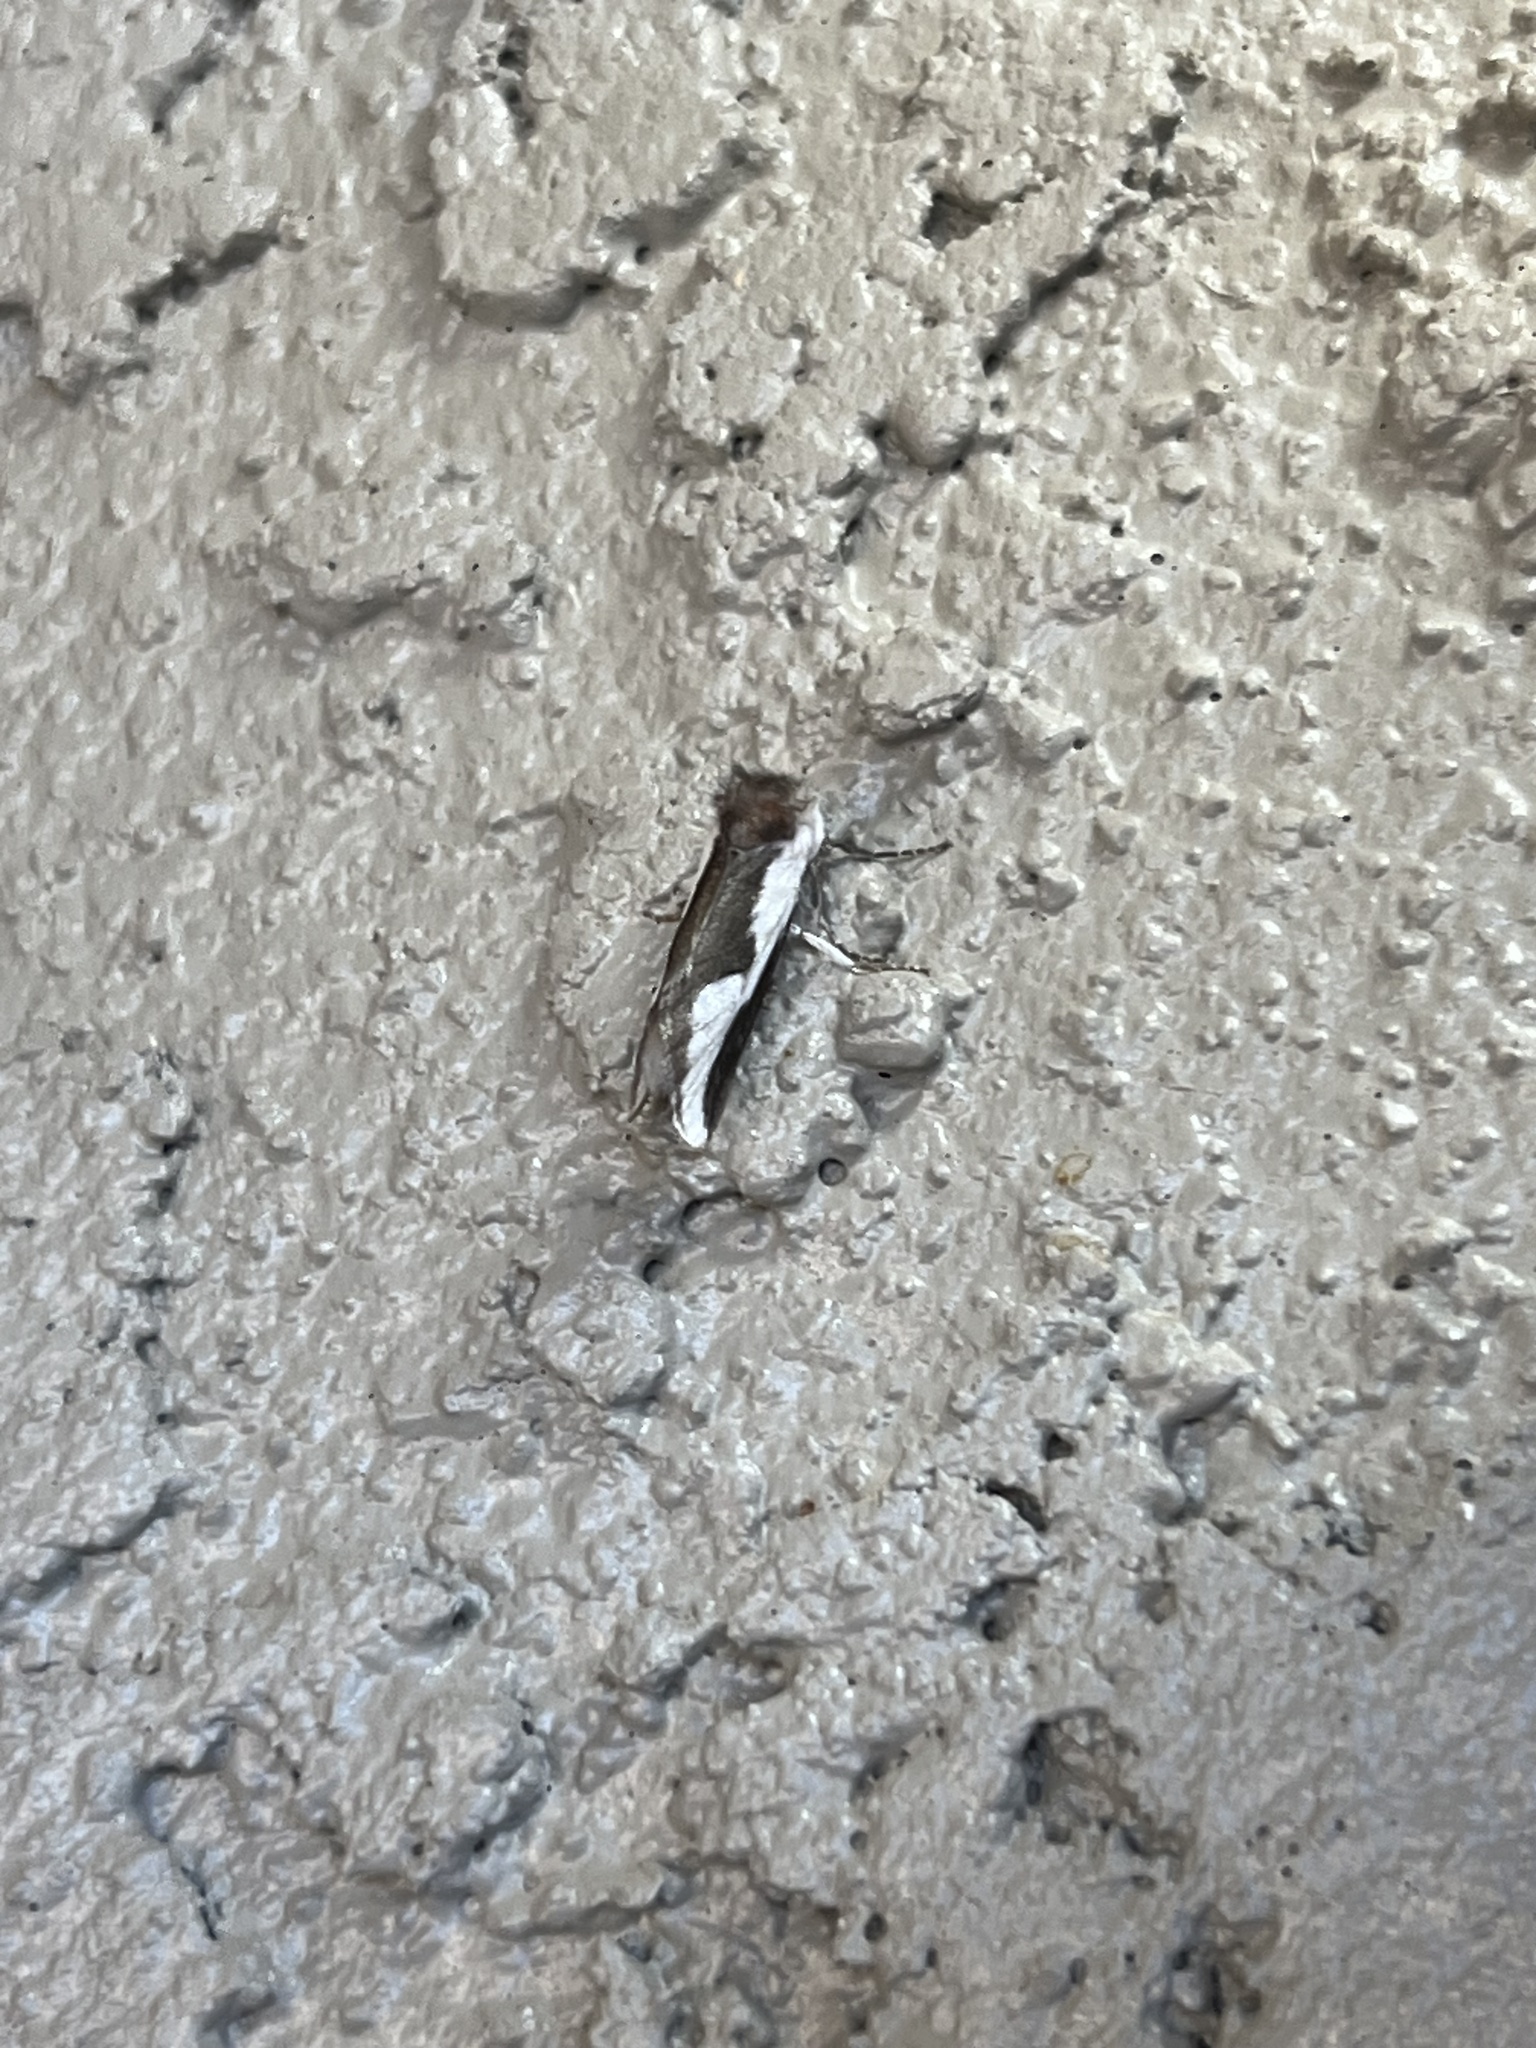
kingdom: Animalia
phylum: Arthropoda
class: Insecta
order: Lepidoptera
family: Noctuidae
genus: Euscirrhopterus
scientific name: Euscirrhopterus cosyra
